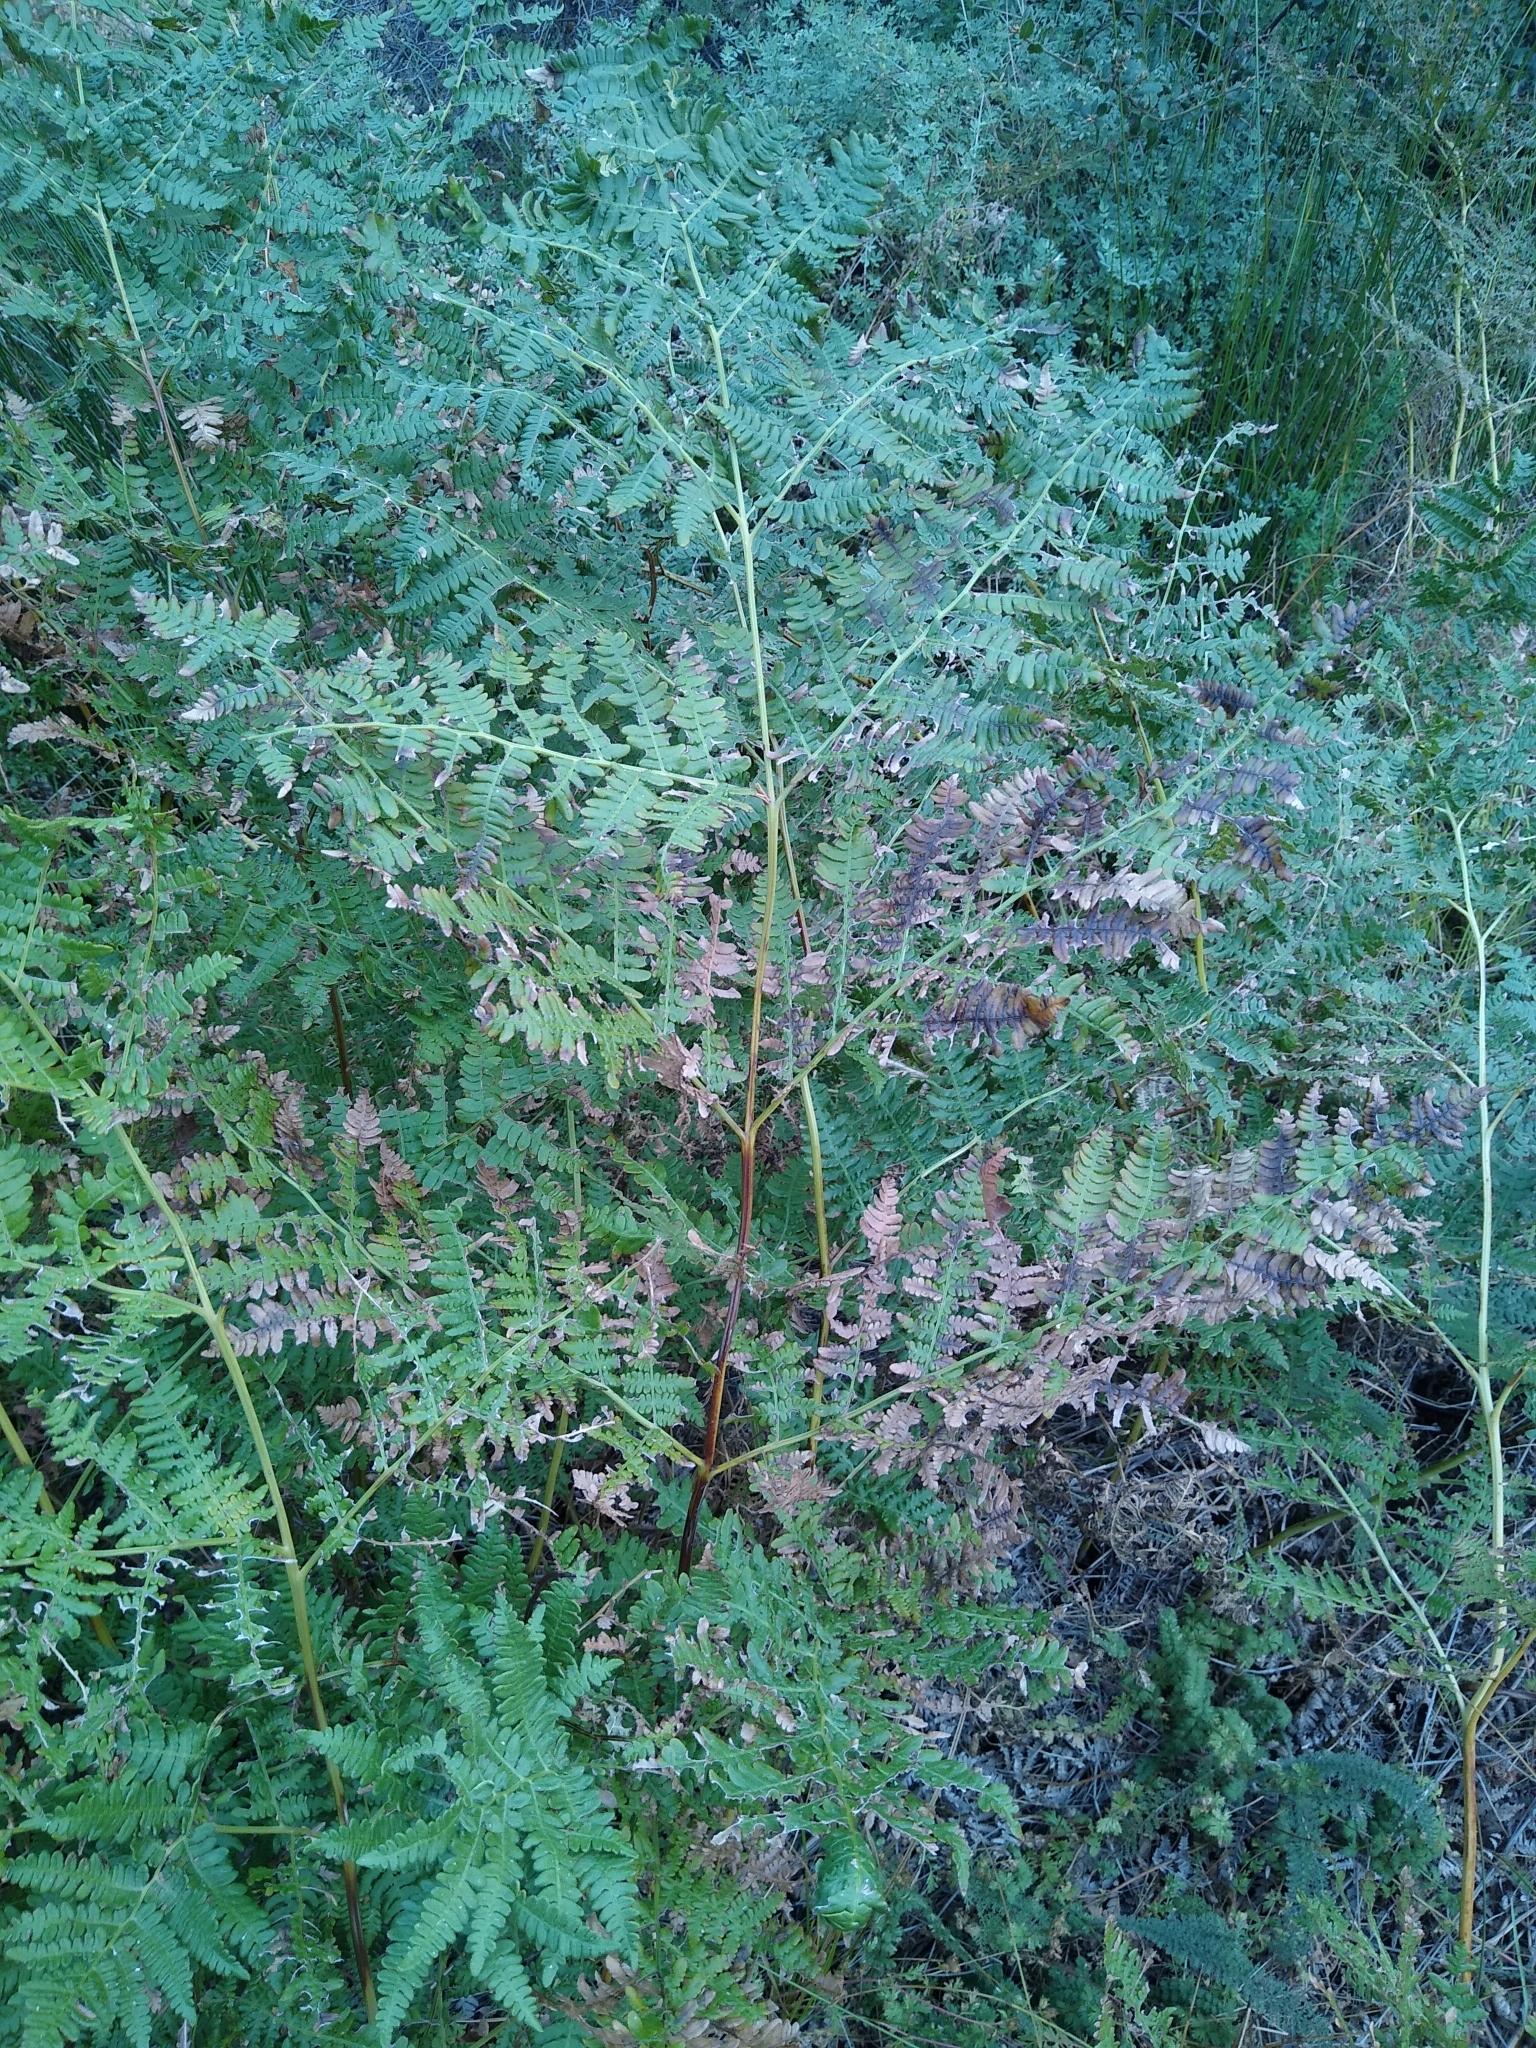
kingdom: Plantae
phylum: Tracheophyta
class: Polypodiopsida
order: Polypodiales
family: Dennstaedtiaceae
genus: Pteridium
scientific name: Pteridium aquilinum
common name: Bracken
